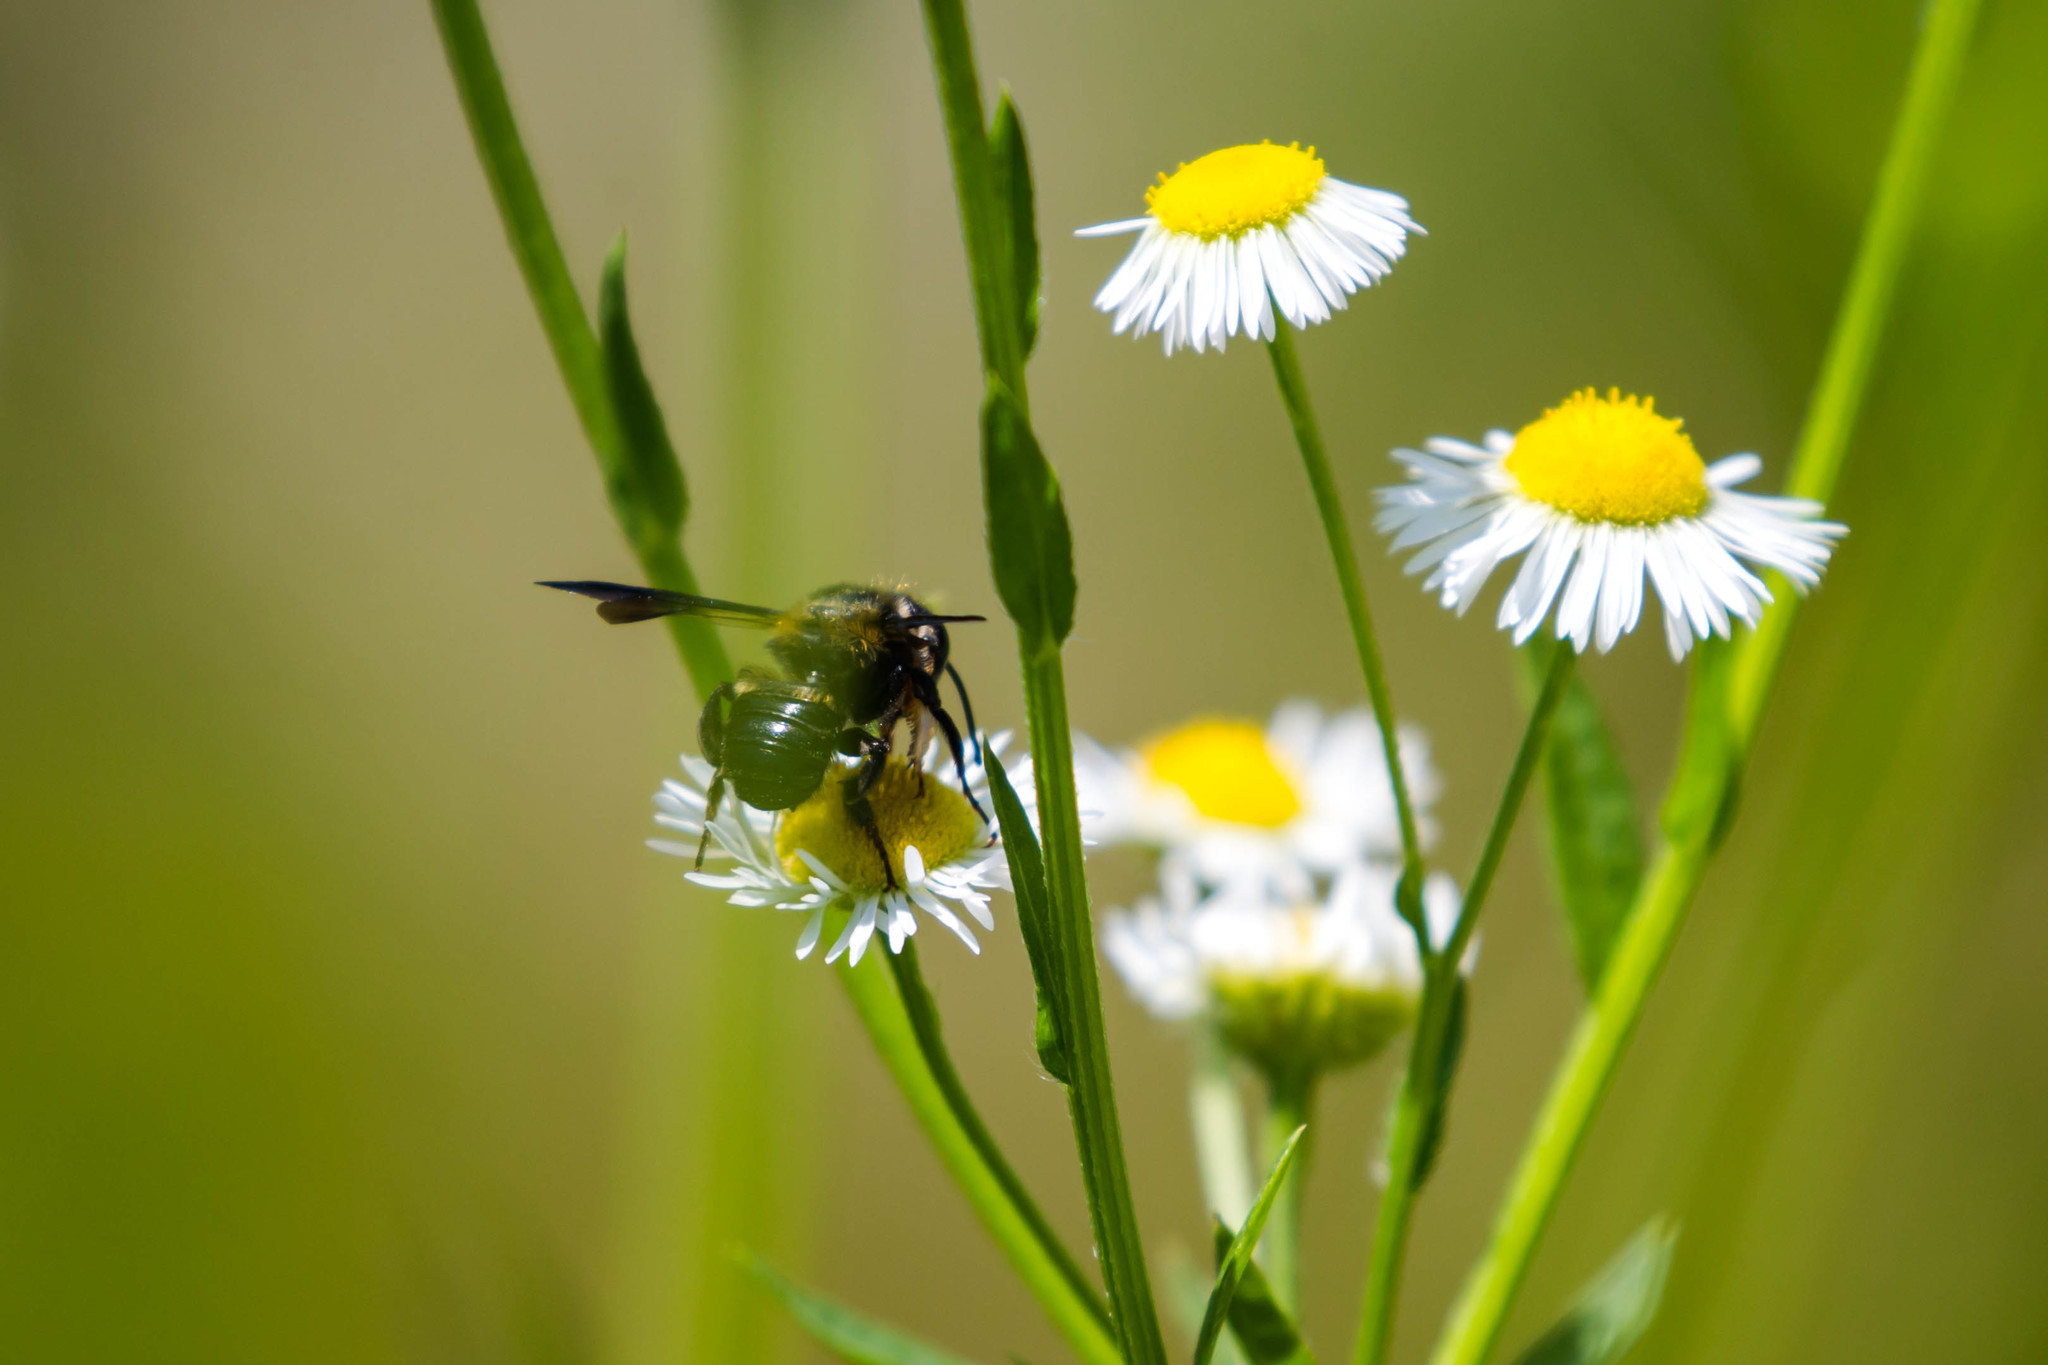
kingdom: Animalia
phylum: Arthropoda
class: Insecta
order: Hymenoptera
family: Megachilidae
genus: Megachile
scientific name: Megachile xylocopoides
